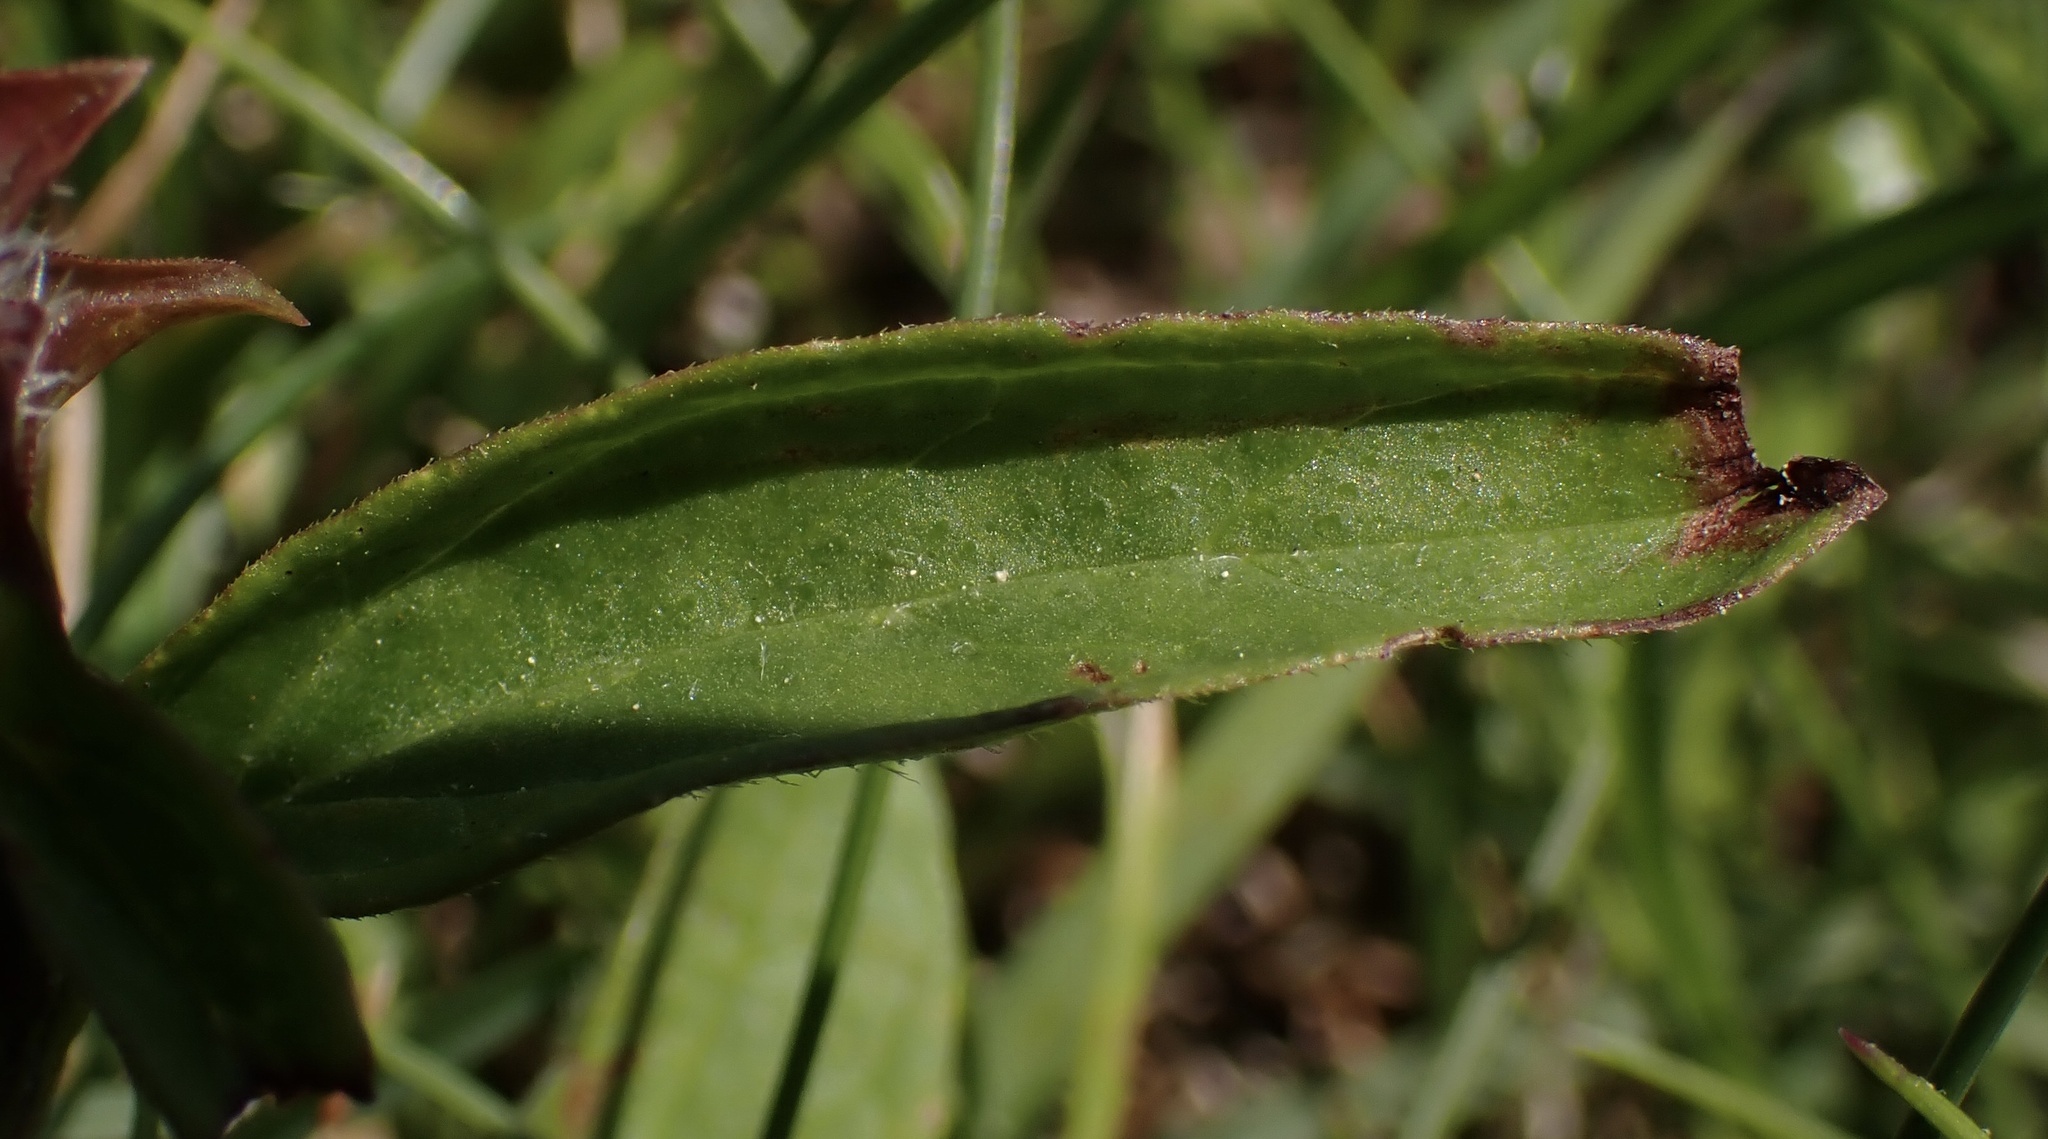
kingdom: Plantae
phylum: Tracheophyta
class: Magnoliopsida
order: Lamiales
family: Lamiaceae
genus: Prunella
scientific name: Prunella vulgaris
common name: Heal-all
